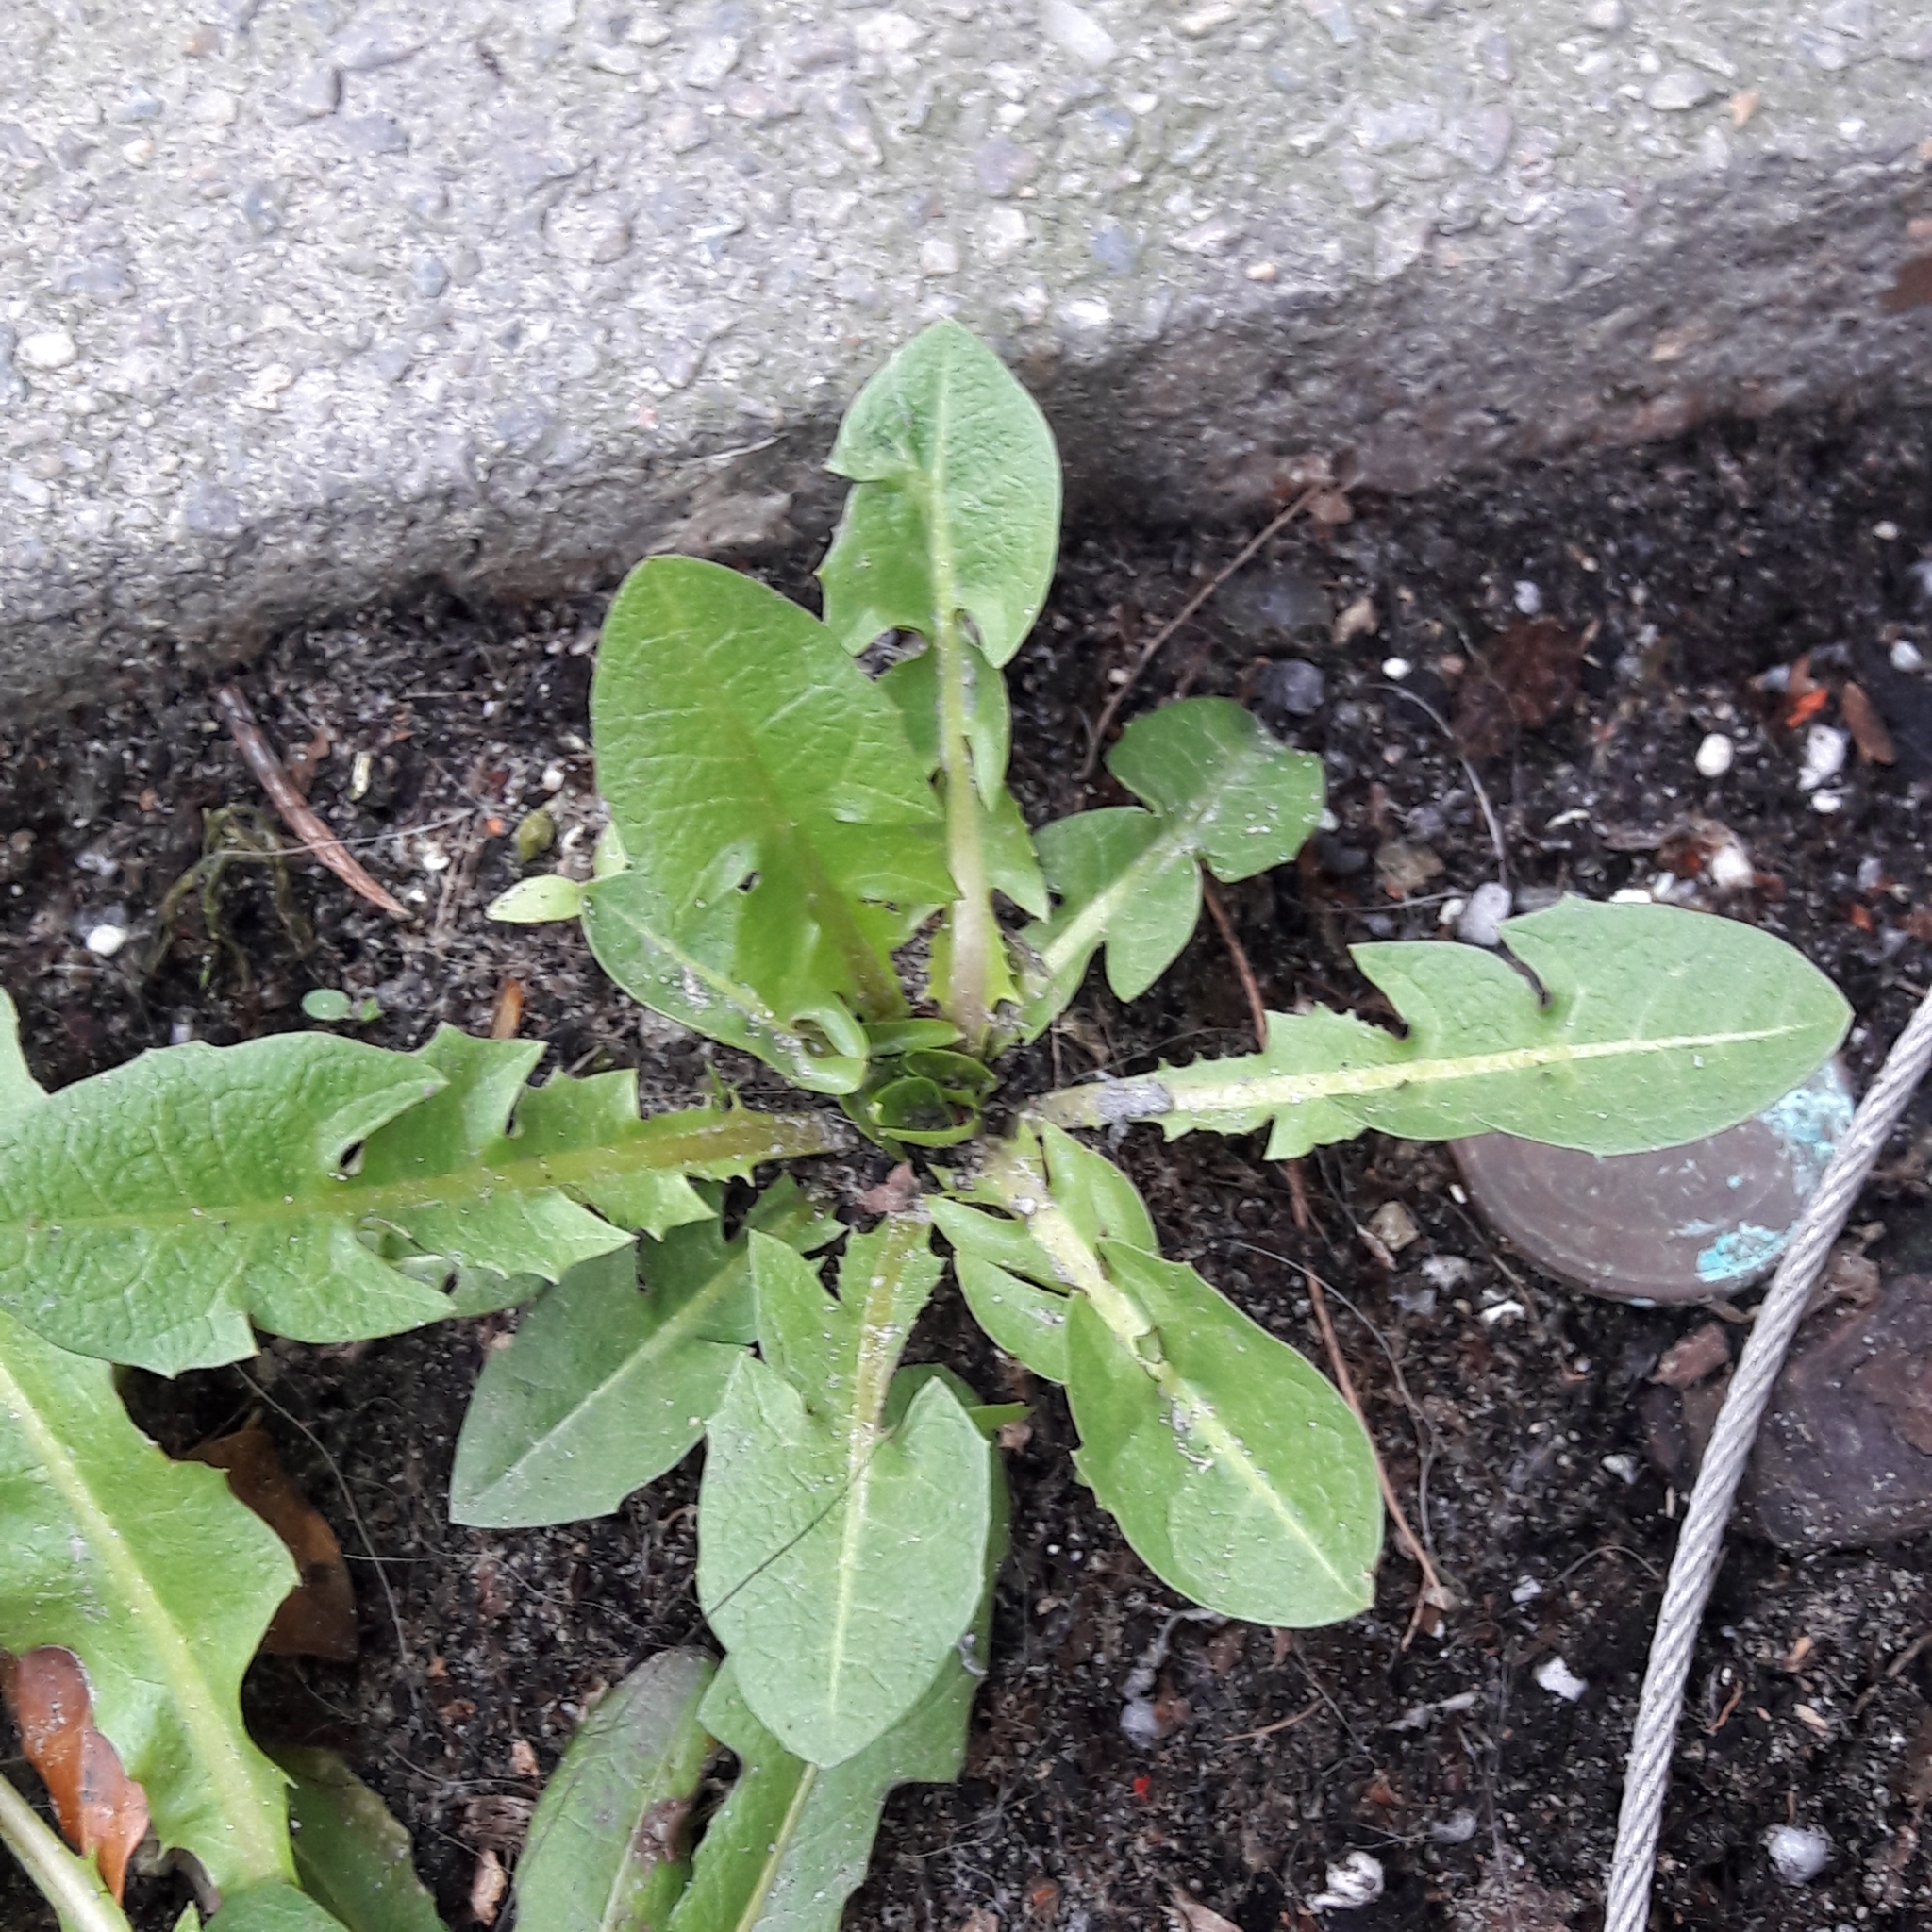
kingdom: Plantae
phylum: Tracheophyta
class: Magnoliopsida
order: Asterales
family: Asteraceae
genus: Taraxacum
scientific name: Taraxacum officinale
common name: Common dandelion
